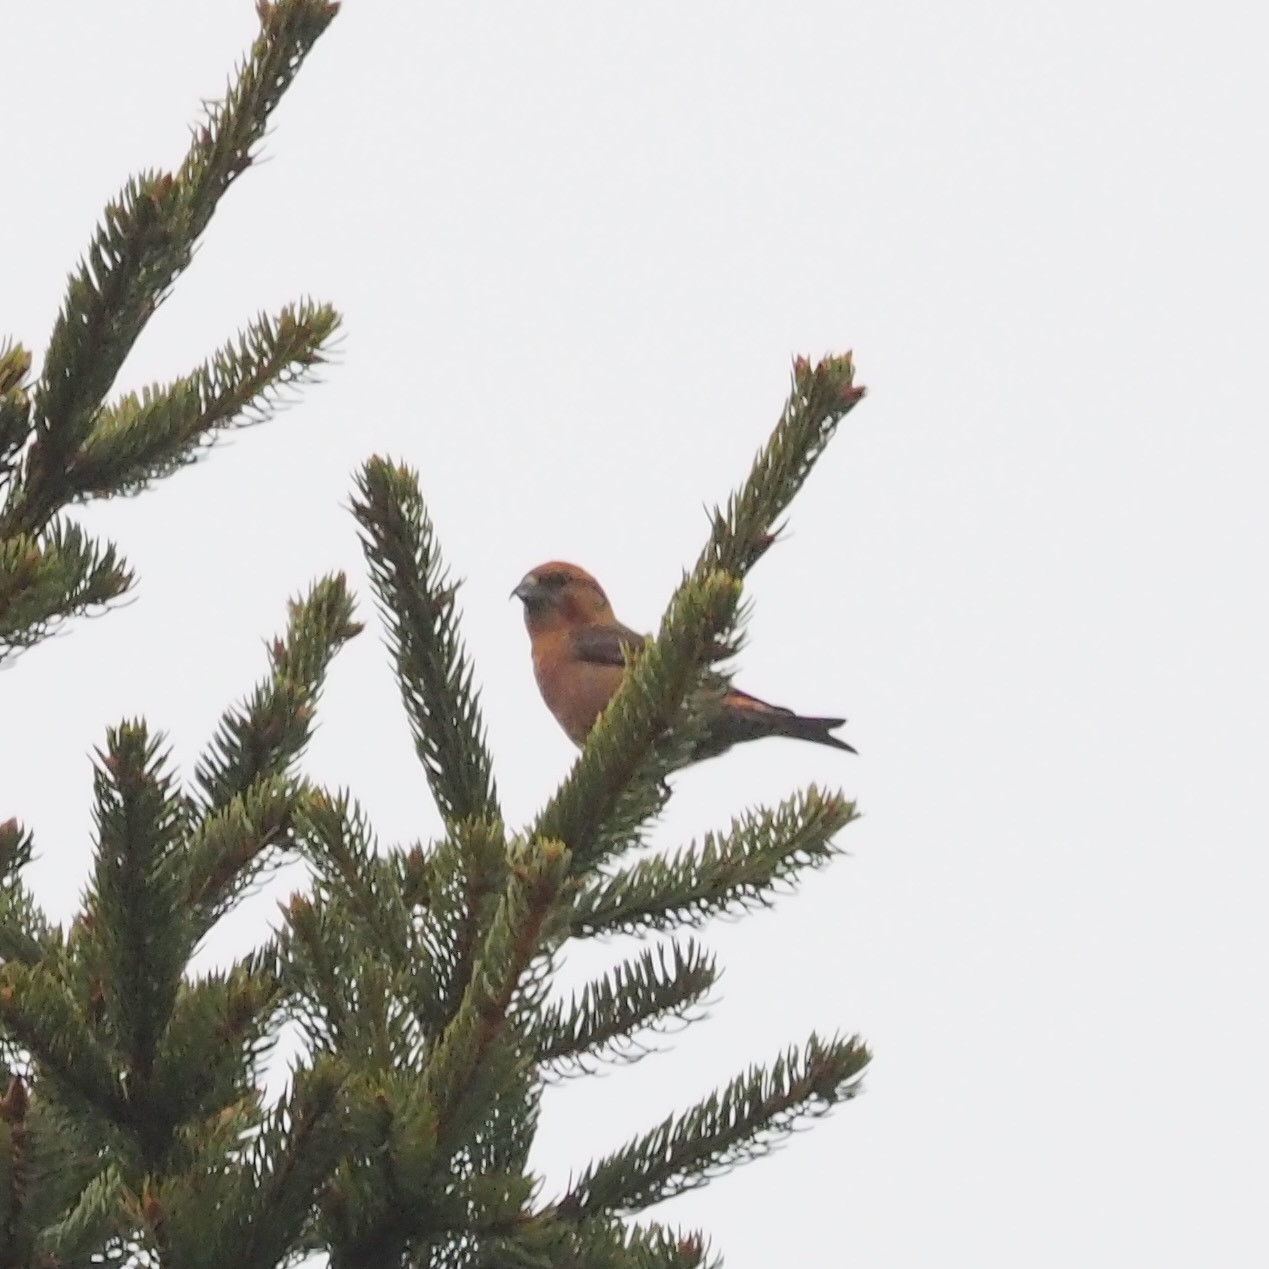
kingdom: Animalia
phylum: Chordata
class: Aves
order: Passeriformes
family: Fringillidae
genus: Loxia
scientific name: Loxia curvirostra
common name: Red crossbill
